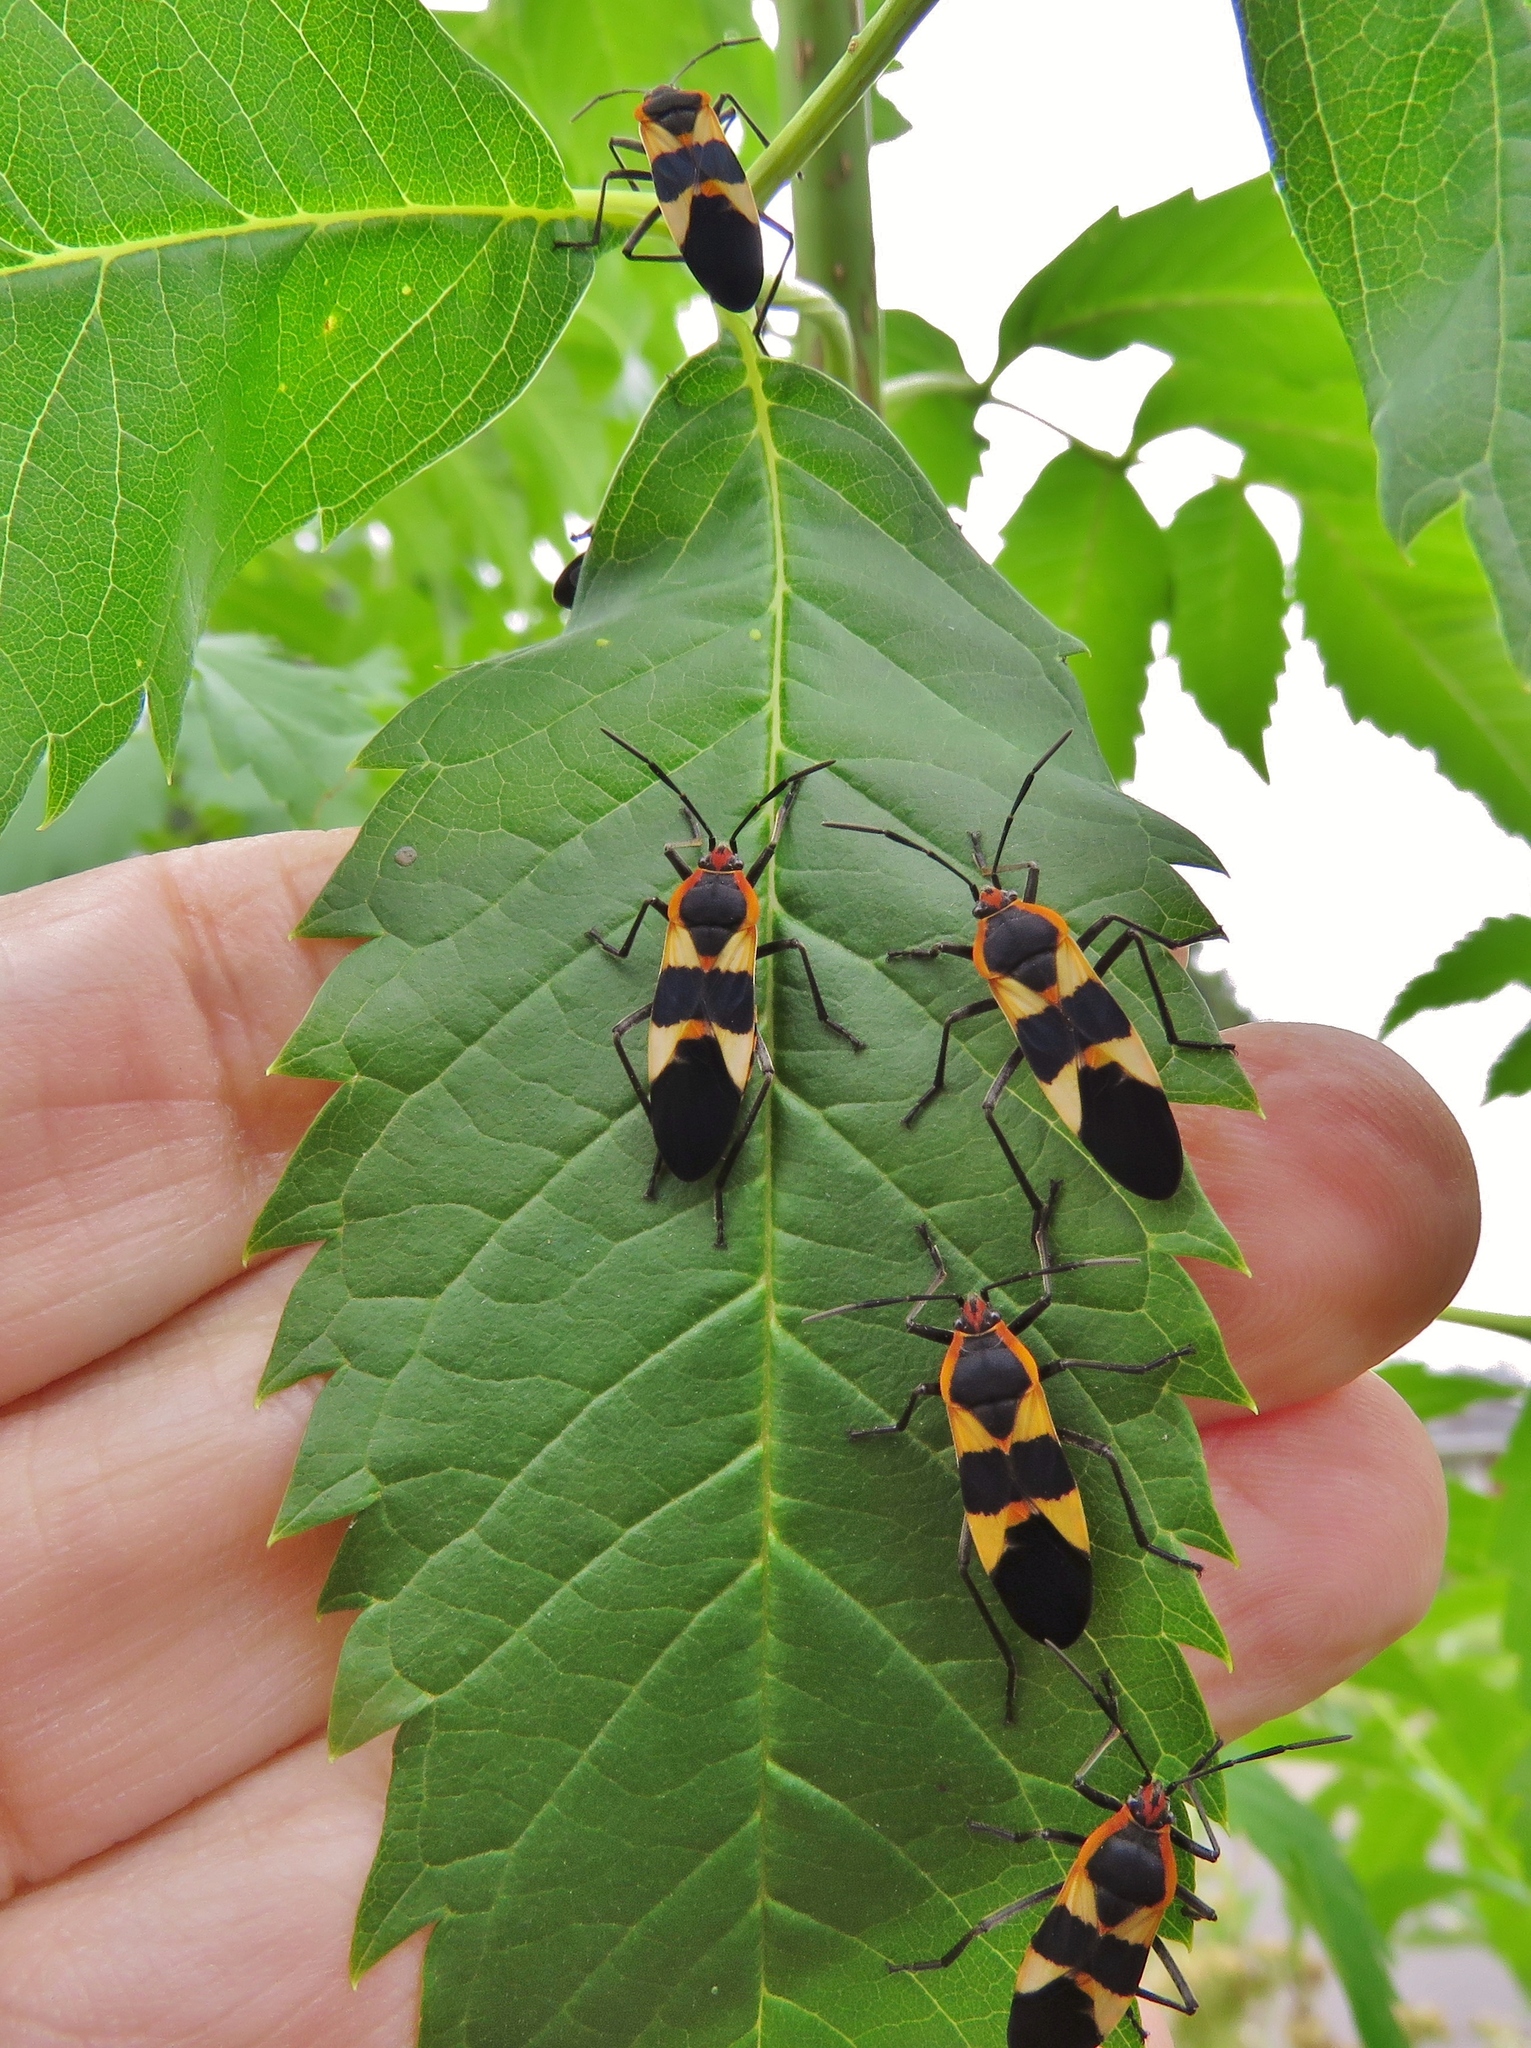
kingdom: Animalia
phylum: Arthropoda
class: Insecta
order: Hemiptera
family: Lygaeidae
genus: Oncopeltus
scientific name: Oncopeltus fasciatus
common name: Large milkweed bug
